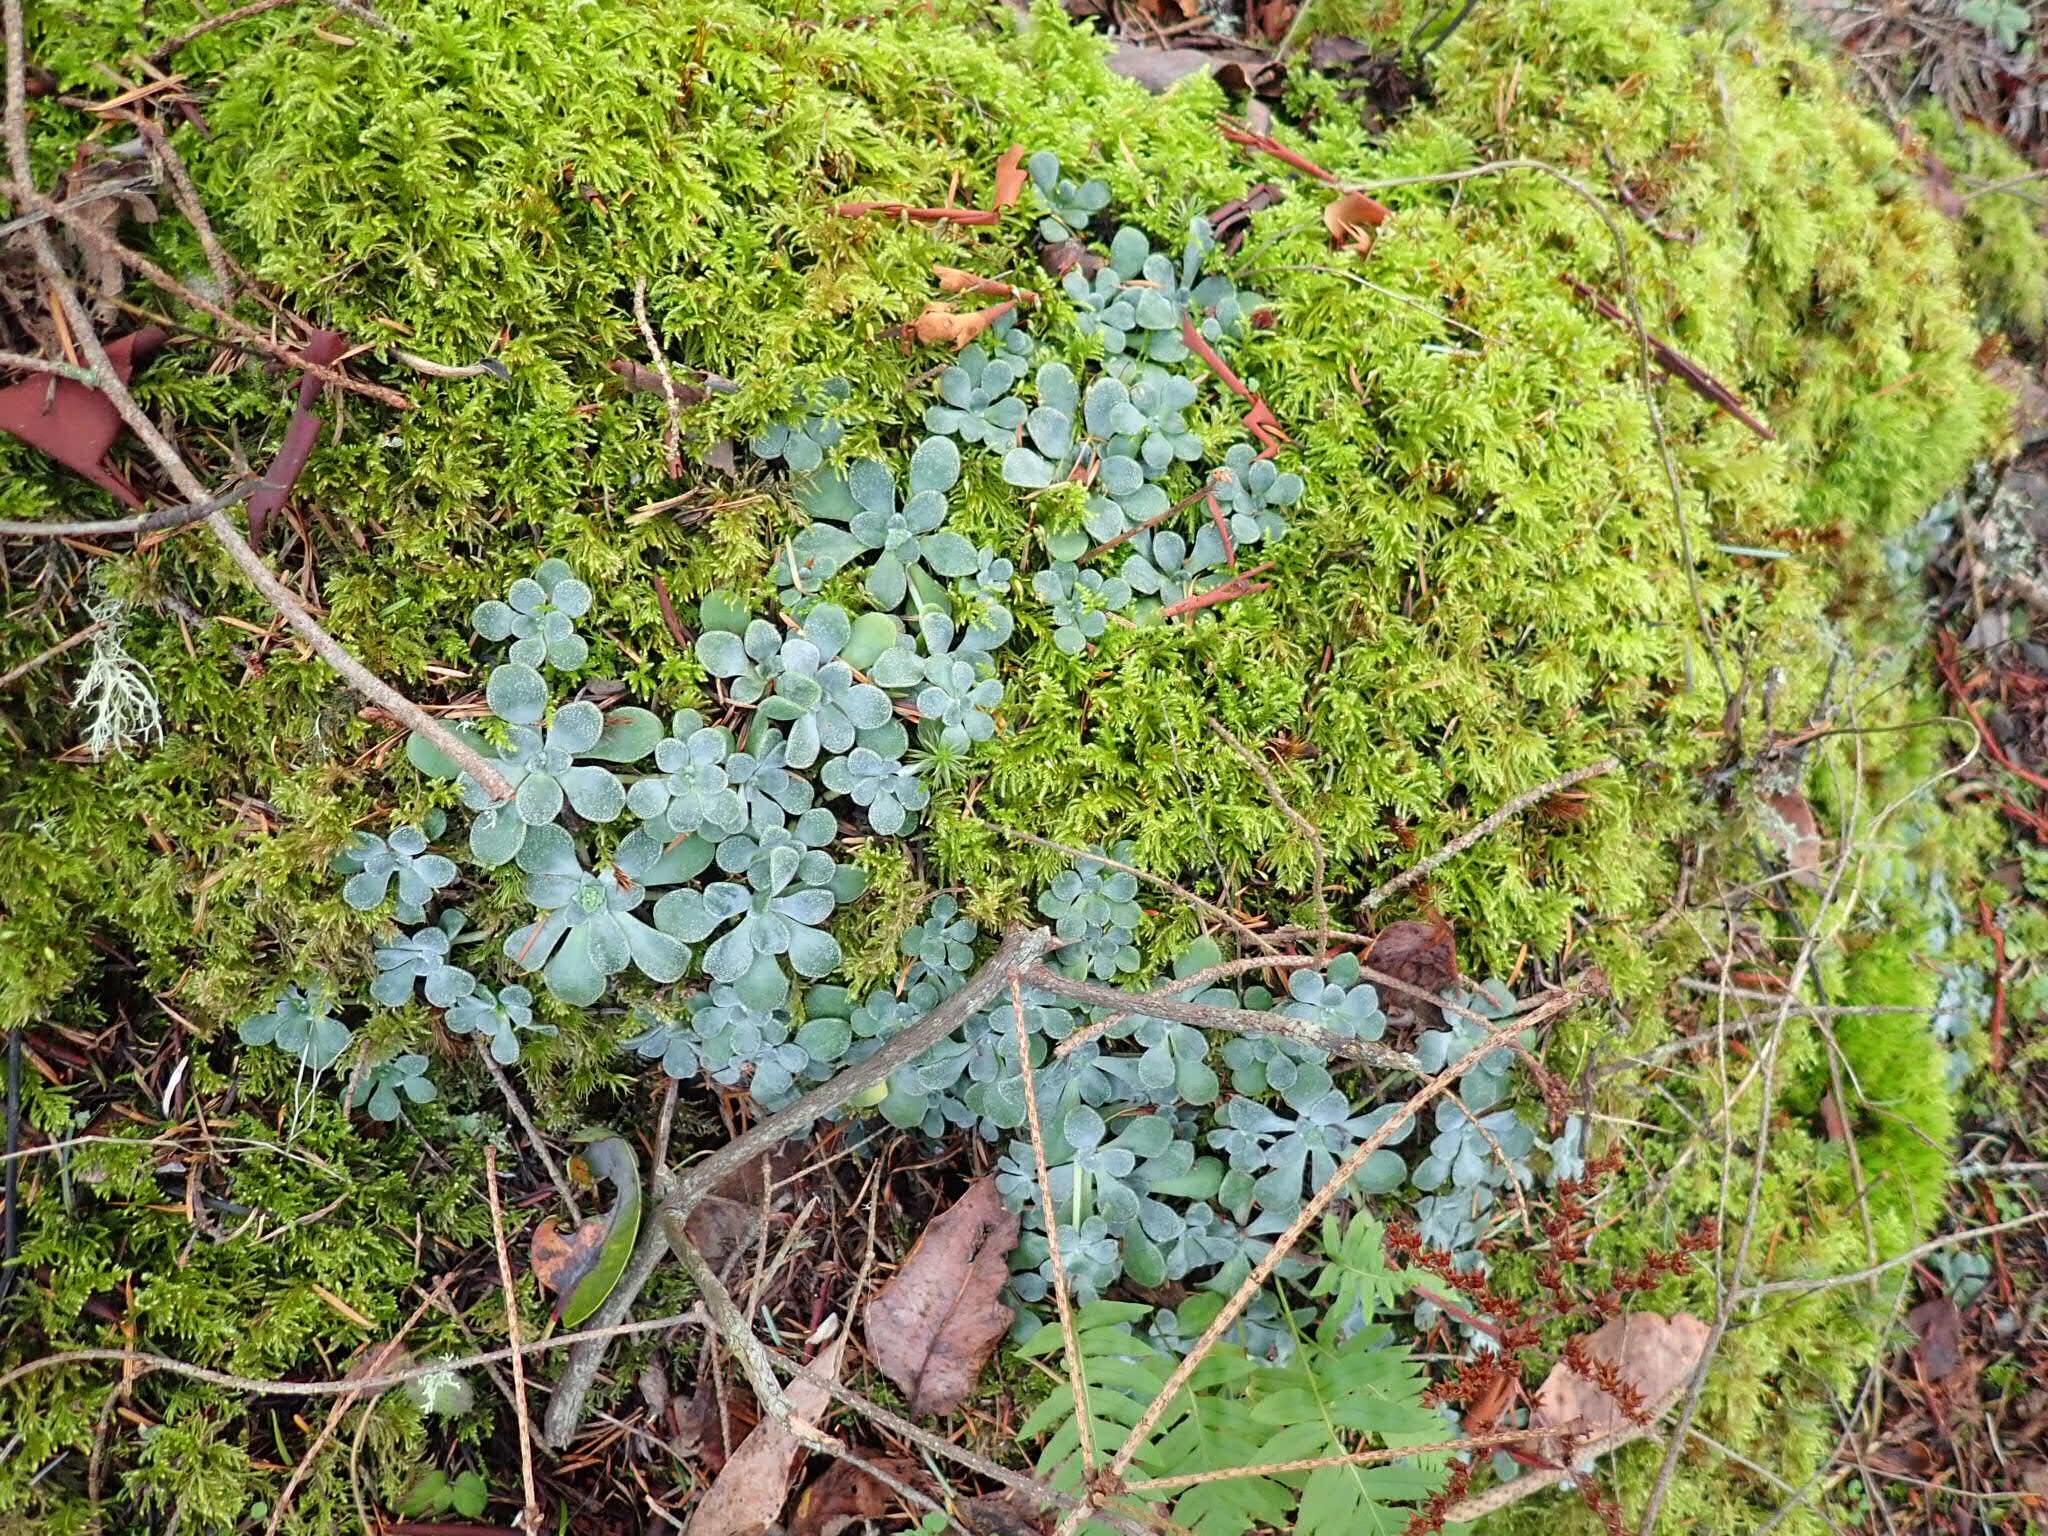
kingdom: Plantae
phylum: Tracheophyta
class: Magnoliopsida
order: Saxifragales
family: Crassulaceae
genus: Sedum
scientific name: Sedum spathulifolium
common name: Colorado stonecrop
